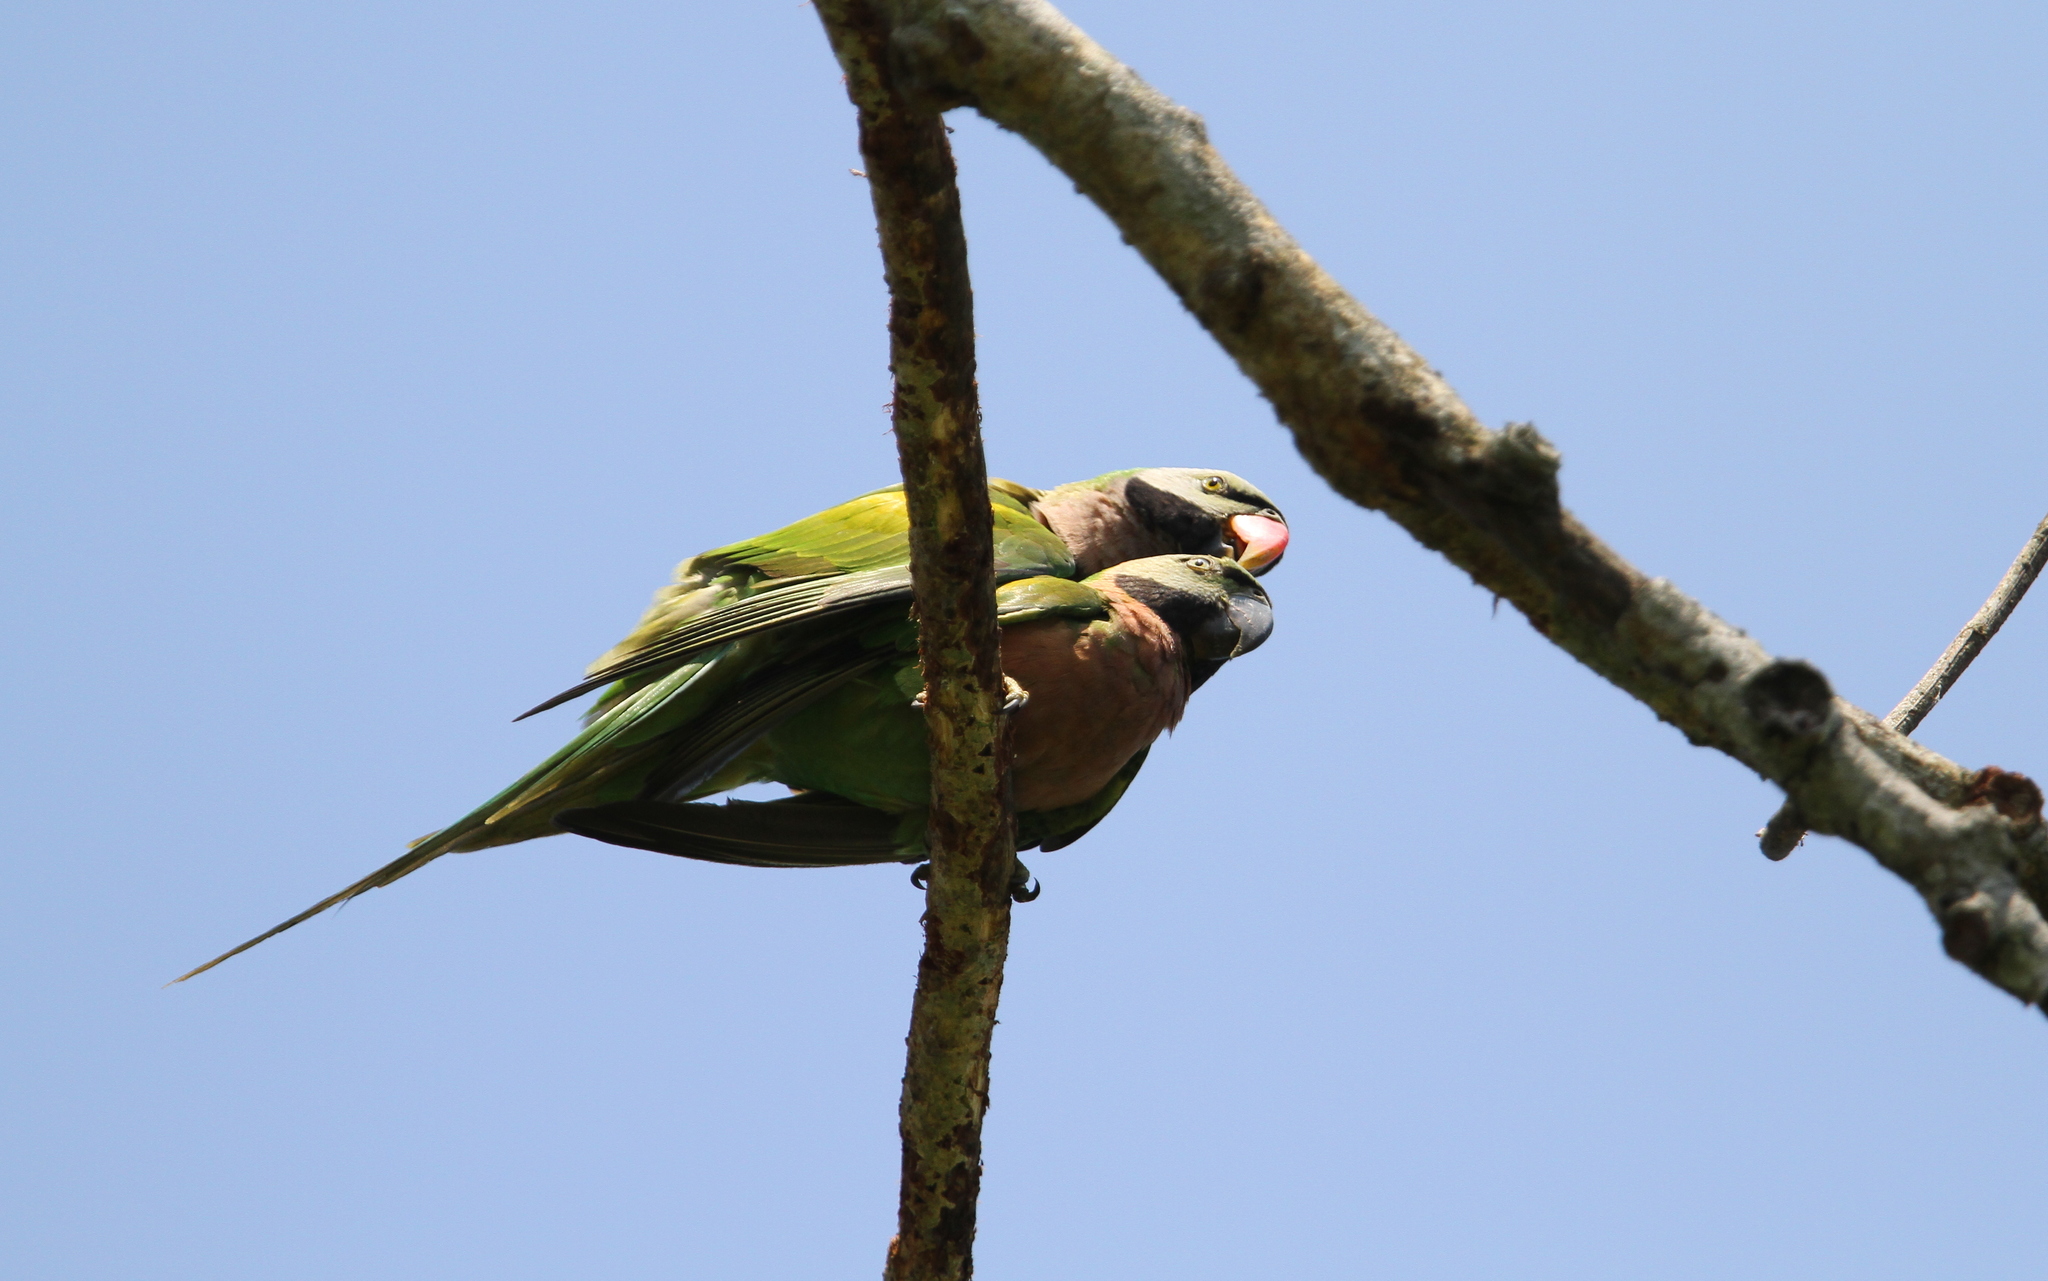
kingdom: Animalia
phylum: Chordata
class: Aves
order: Psittaciformes
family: Psittacidae
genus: Psittacula
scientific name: Psittacula alexandri
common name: Red-breasted parakeet
